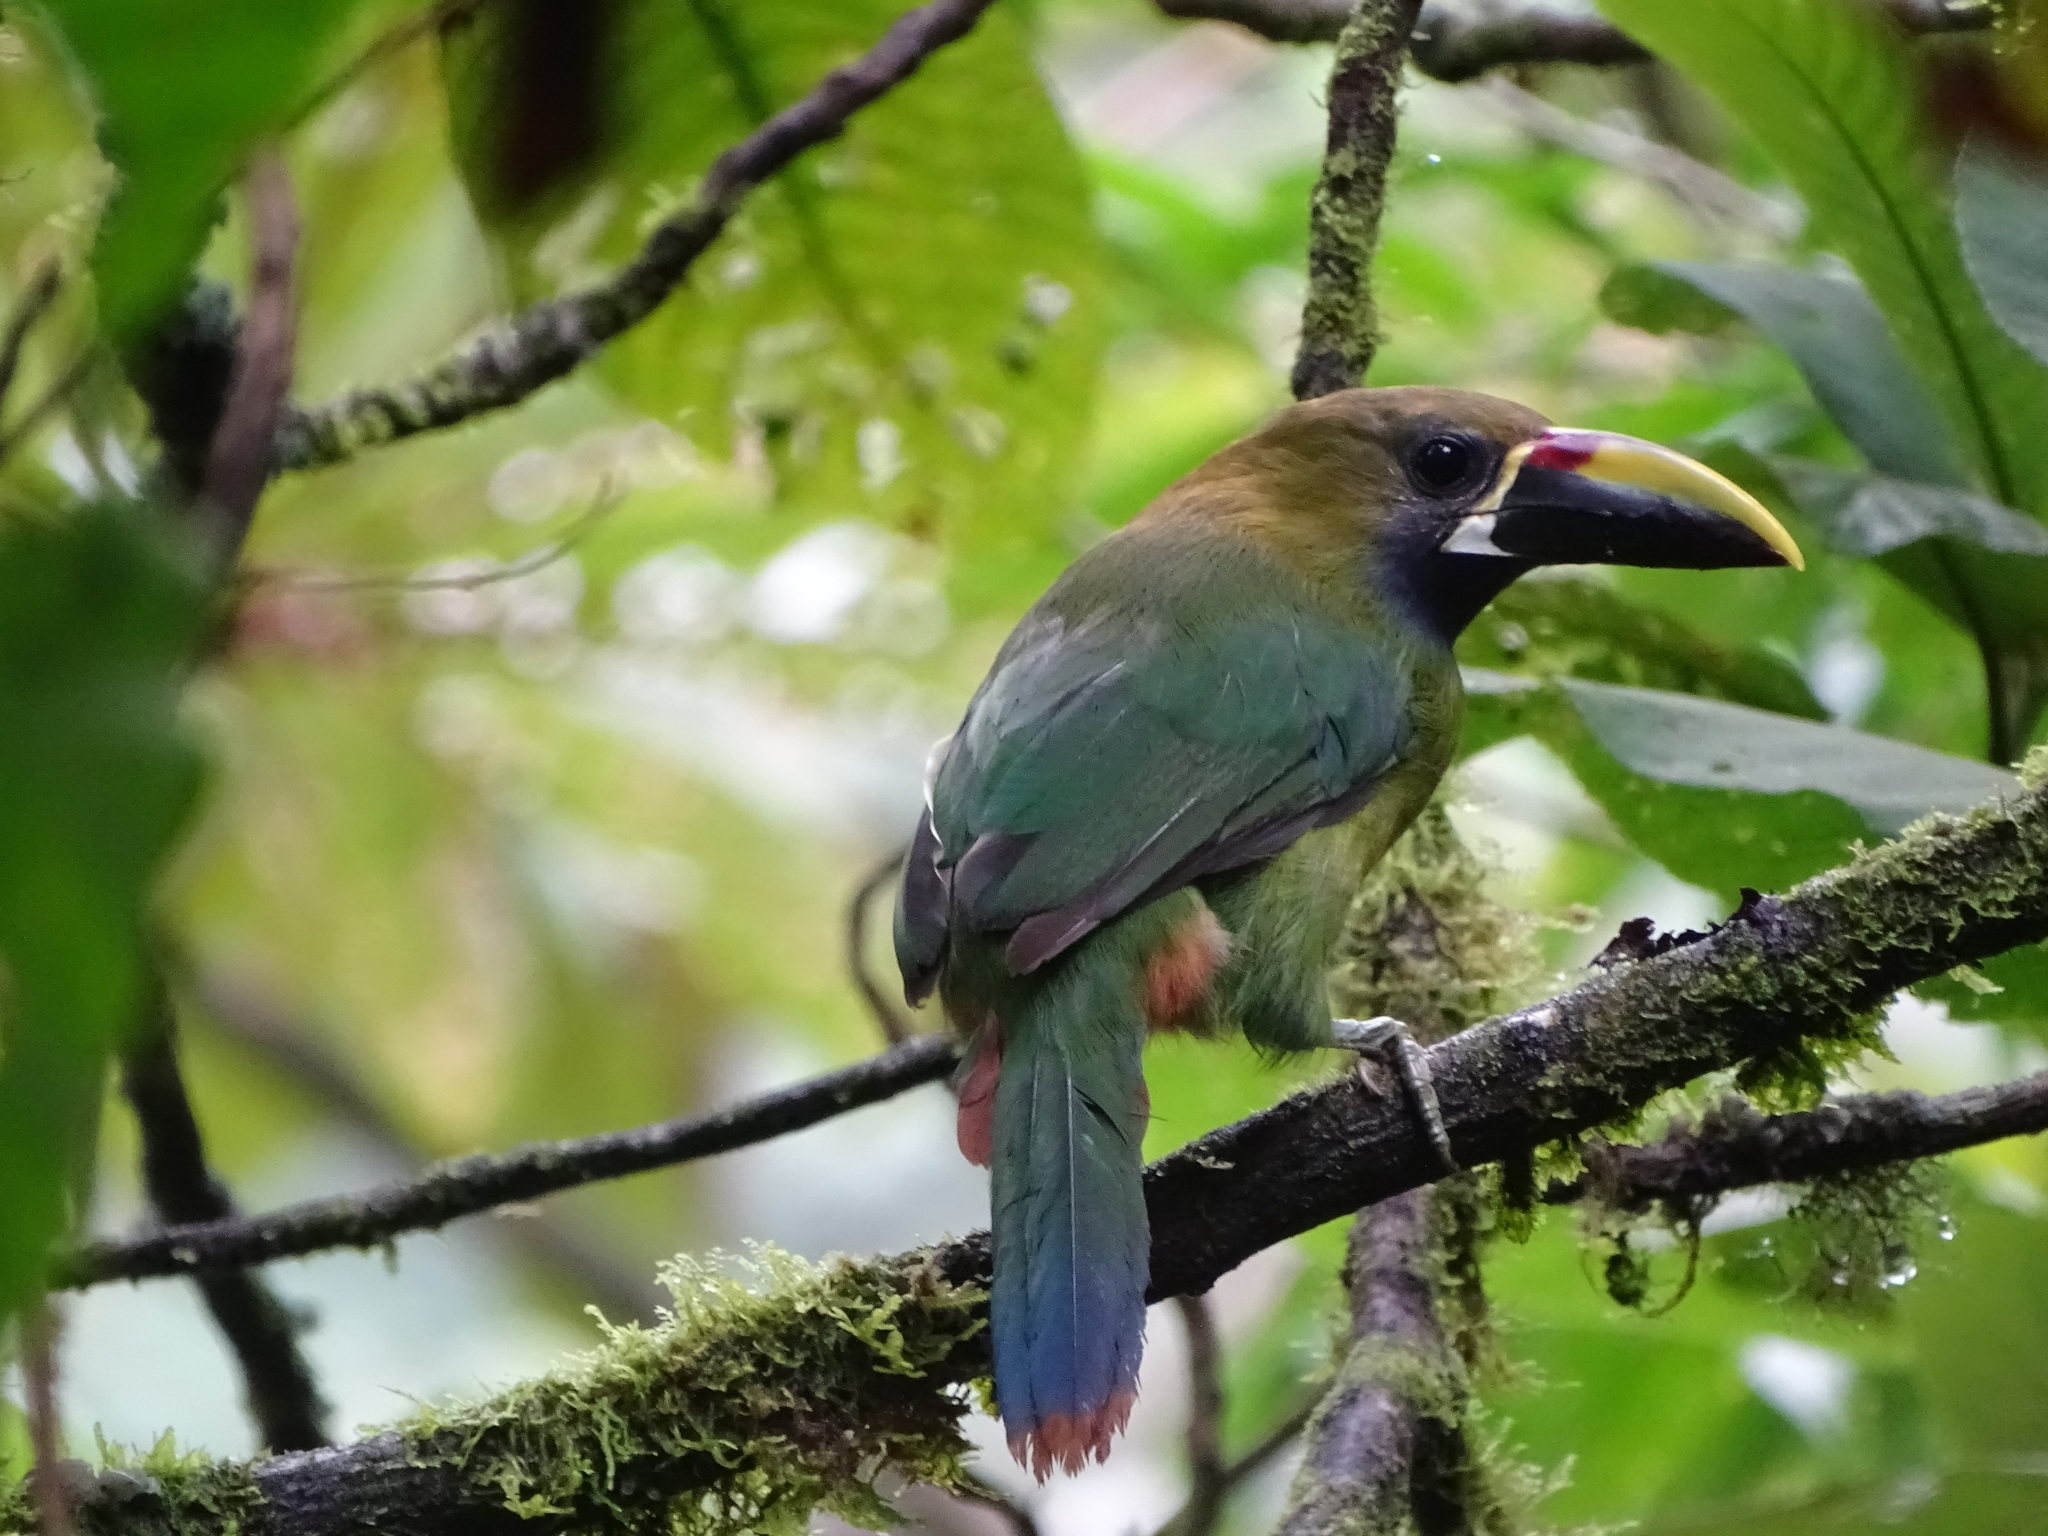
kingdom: Animalia
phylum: Chordata
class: Aves
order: Piciformes
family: Ramphastidae
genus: Aulacorhynchus
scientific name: Aulacorhynchus prasinus
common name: Emerald toucanet
